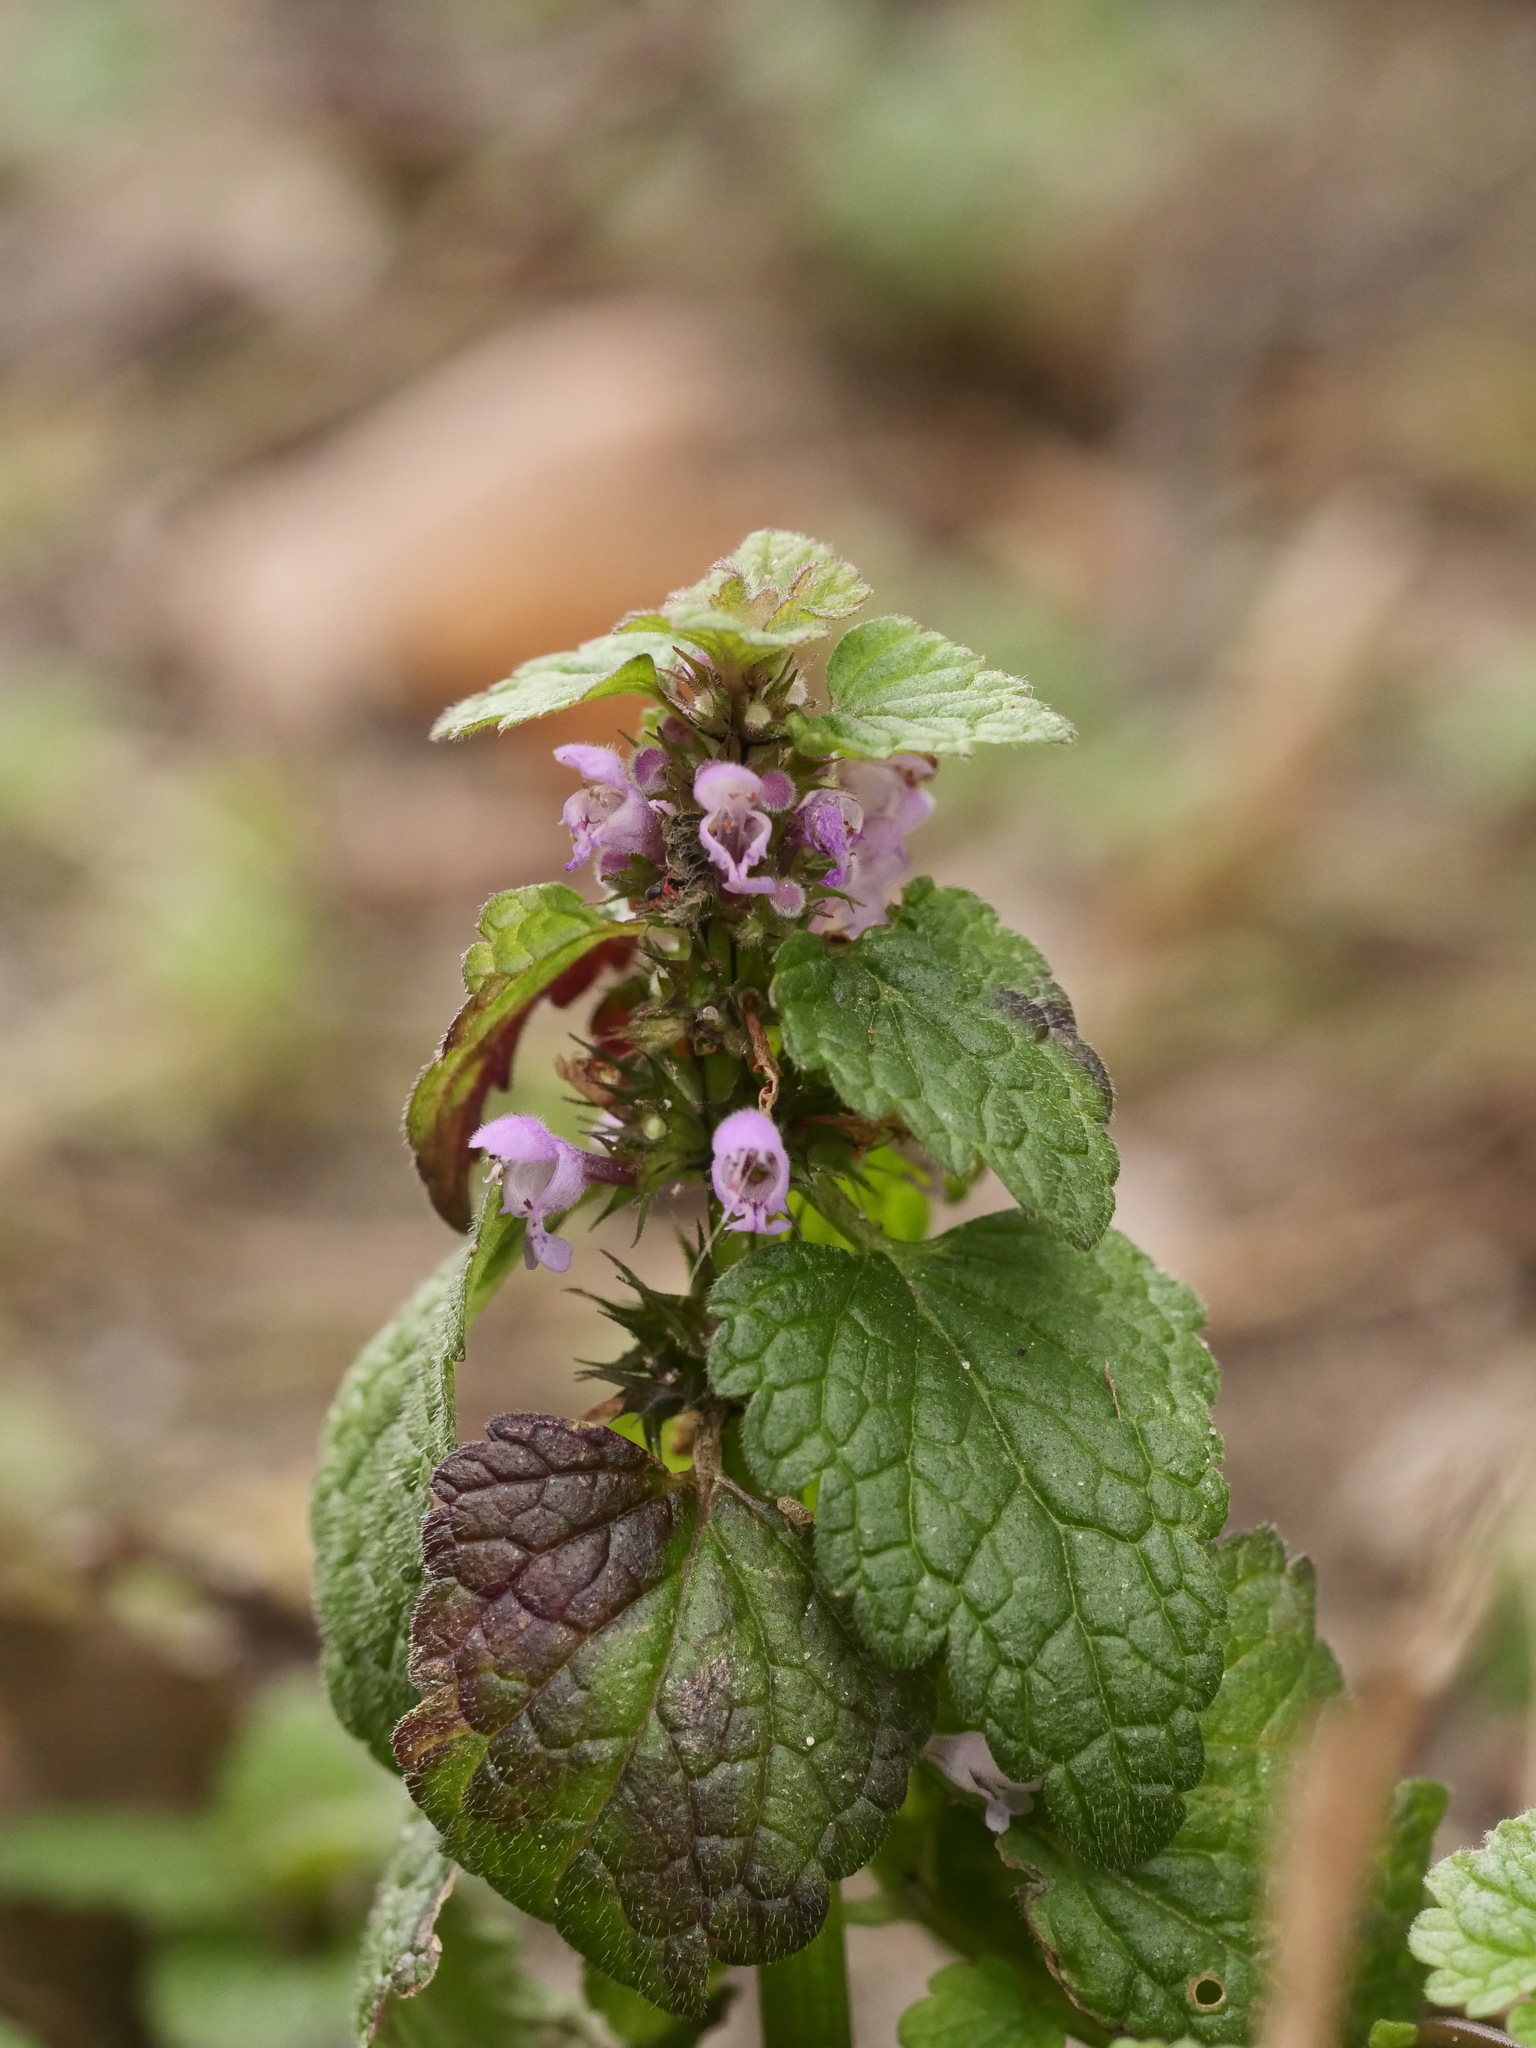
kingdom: Plantae
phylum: Tracheophyta
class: Magnoliopsida
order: Lamiales
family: Lamiaceae
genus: Lamium
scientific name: Lamium purpureum
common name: Red dead-nettle
